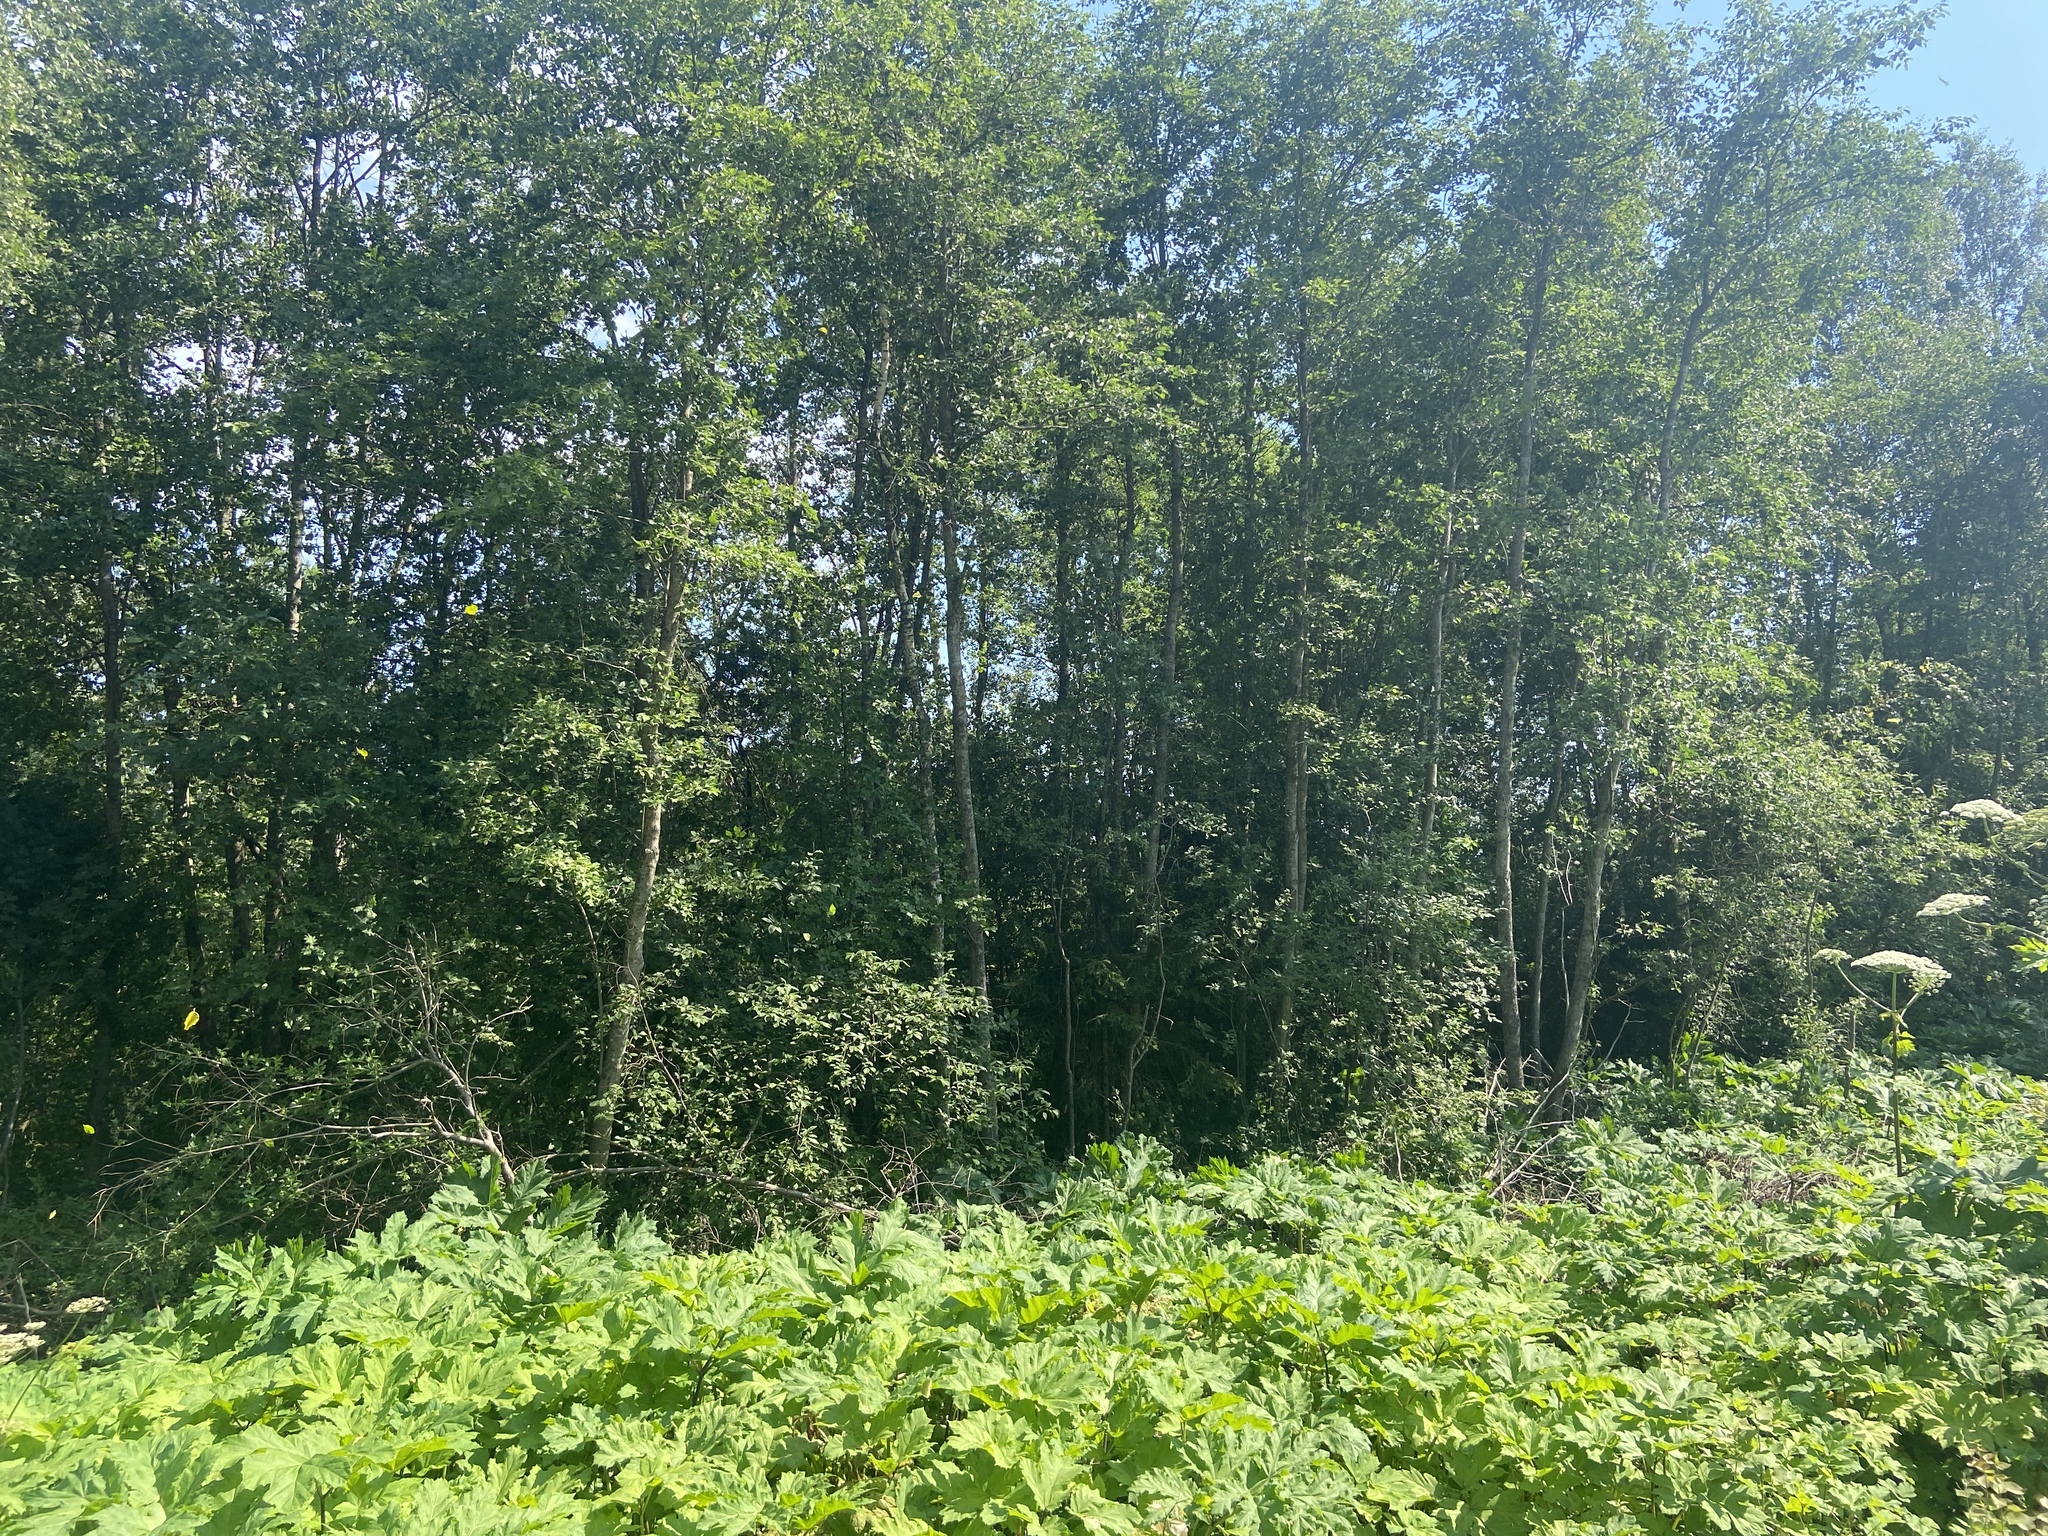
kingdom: Plantae
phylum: Tracheophyta
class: Magnoliopsida
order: Apiales
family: Apiaceae
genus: Heracleum
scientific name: Heracleum sosnowskyi
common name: Sosnowsky's hogweed
